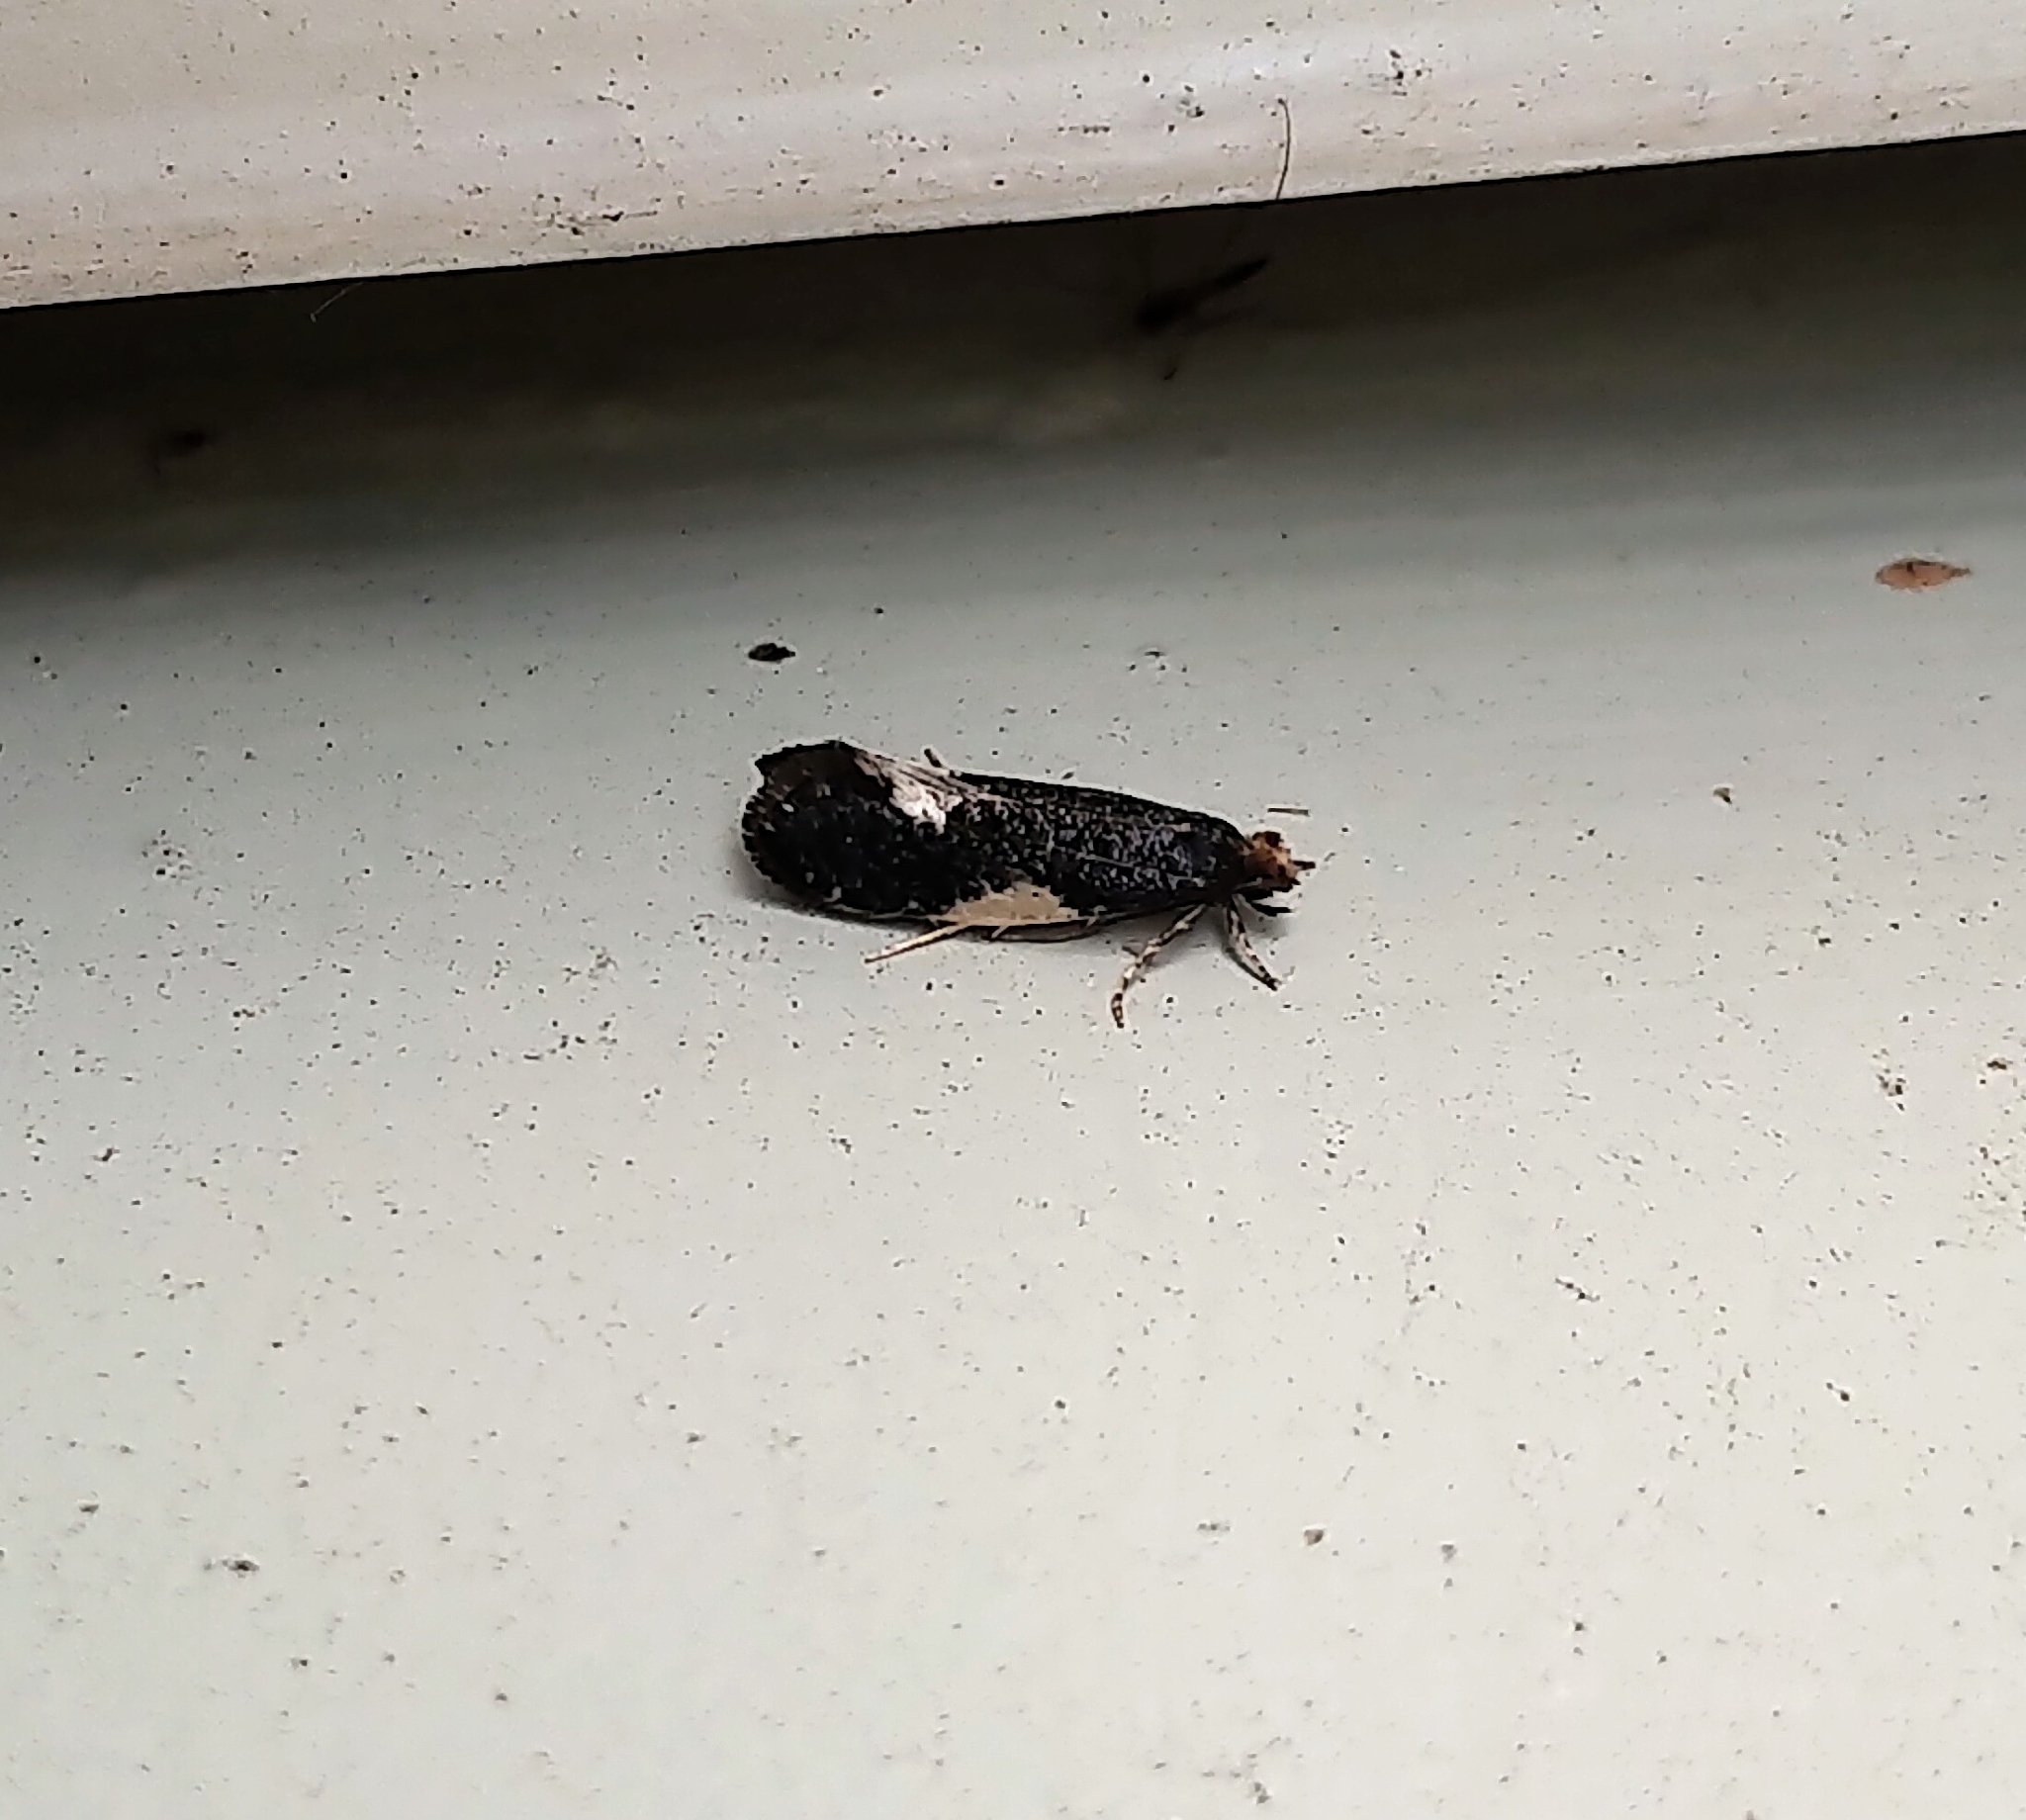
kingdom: Animalia
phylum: Arthropoda
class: Insecta
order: Lepidoptera
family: Tineidae
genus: Monopis
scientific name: Monopis spilotella
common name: Orange-headed monopis
